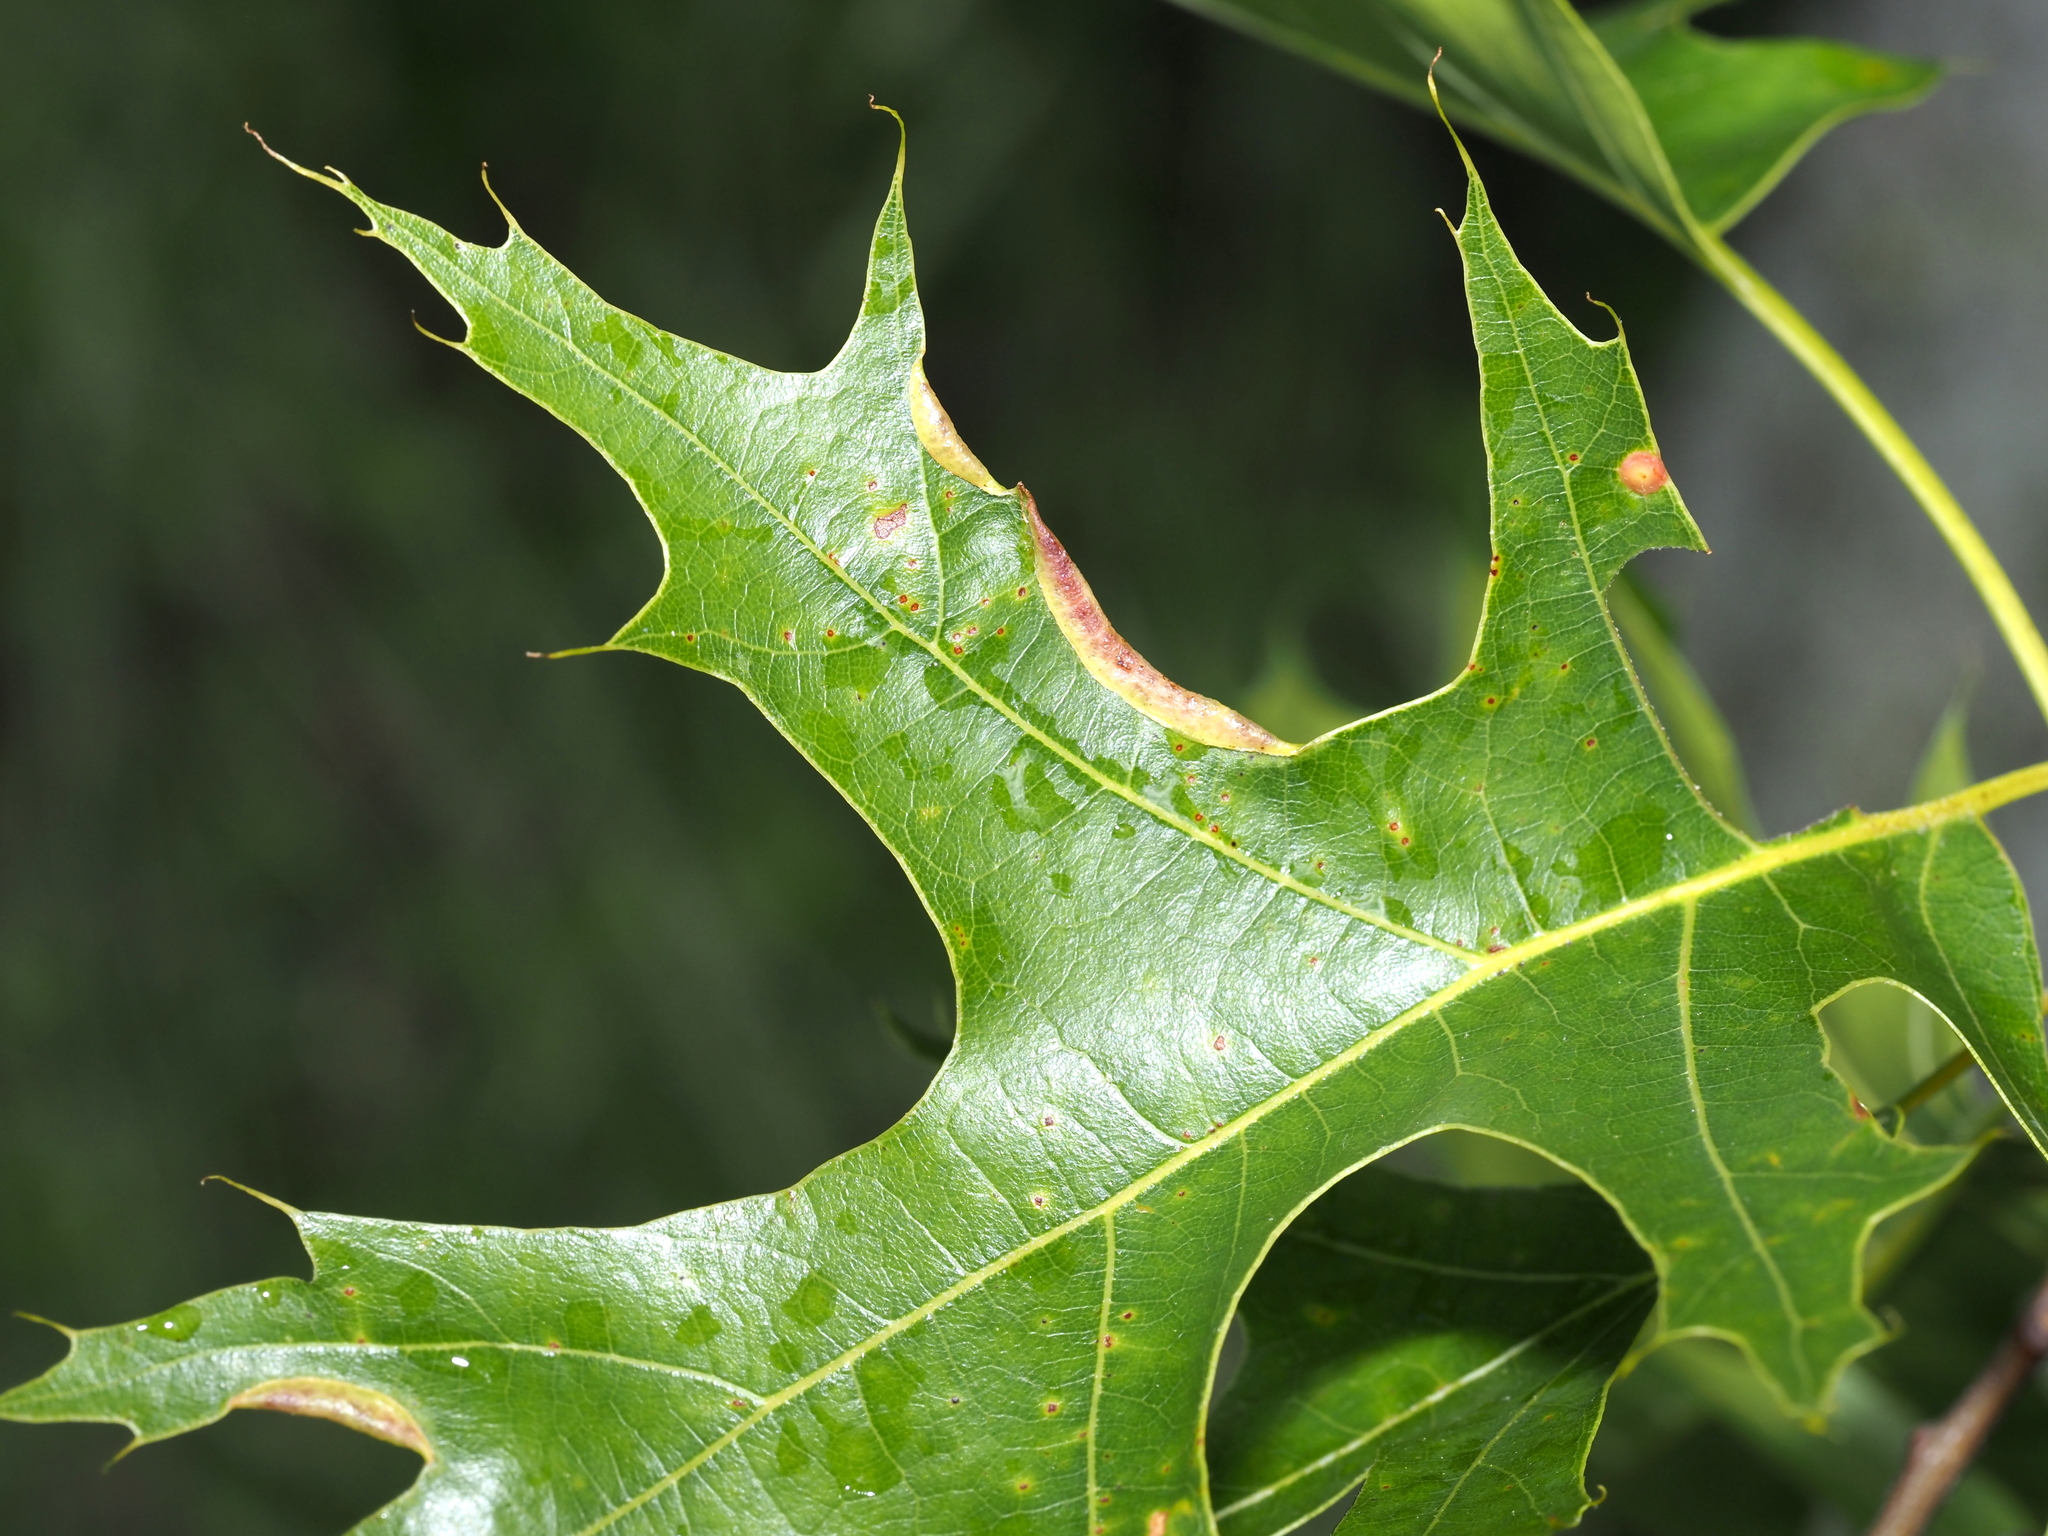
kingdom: Animalia
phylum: Arthropoda
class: Insecta
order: Diptera
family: Cecidomyiidae
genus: Macrodiplosis
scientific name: Macrodiplosis erubescens
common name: Marginal leaf fold gall midge
